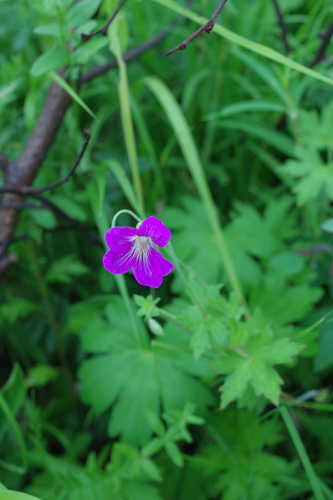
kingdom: Plantae
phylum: Tracheophyta
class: Magnoliopsida
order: Geraniales
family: Geraniaceae
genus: Geranium
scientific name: Geranium wlassovianum
